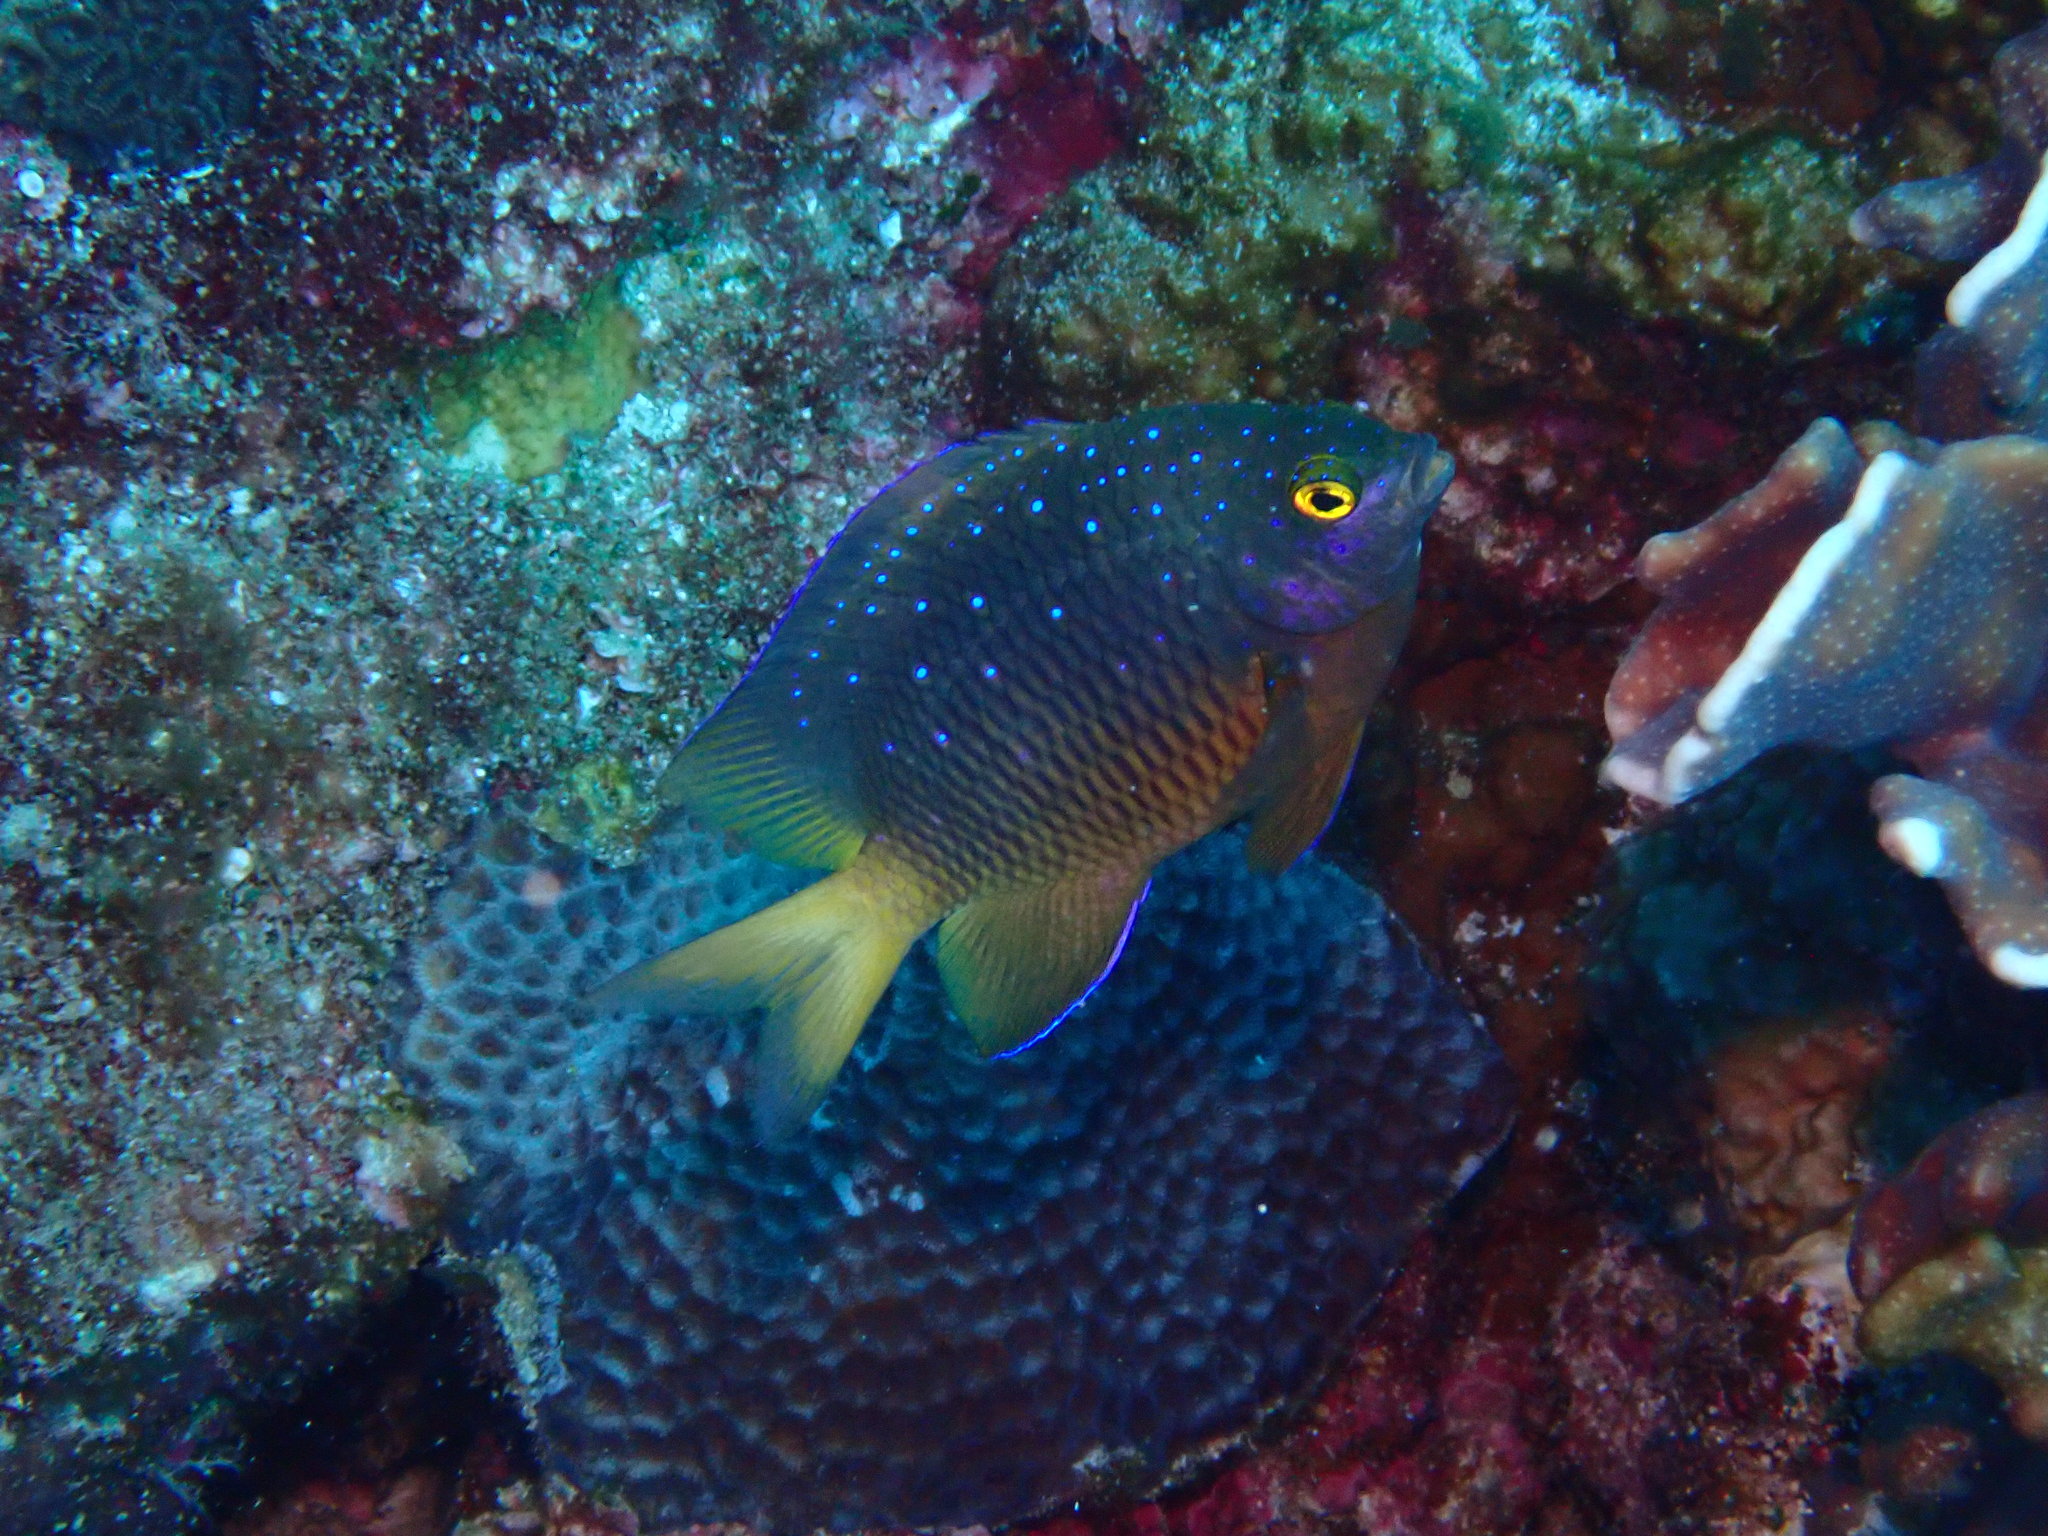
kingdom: Animalia
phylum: Chordata
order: Perciformes
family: Pomacentridae
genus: Plectroglyphidodon
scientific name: Plectroglyphidodon lacrymatus
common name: Jewel damsel
